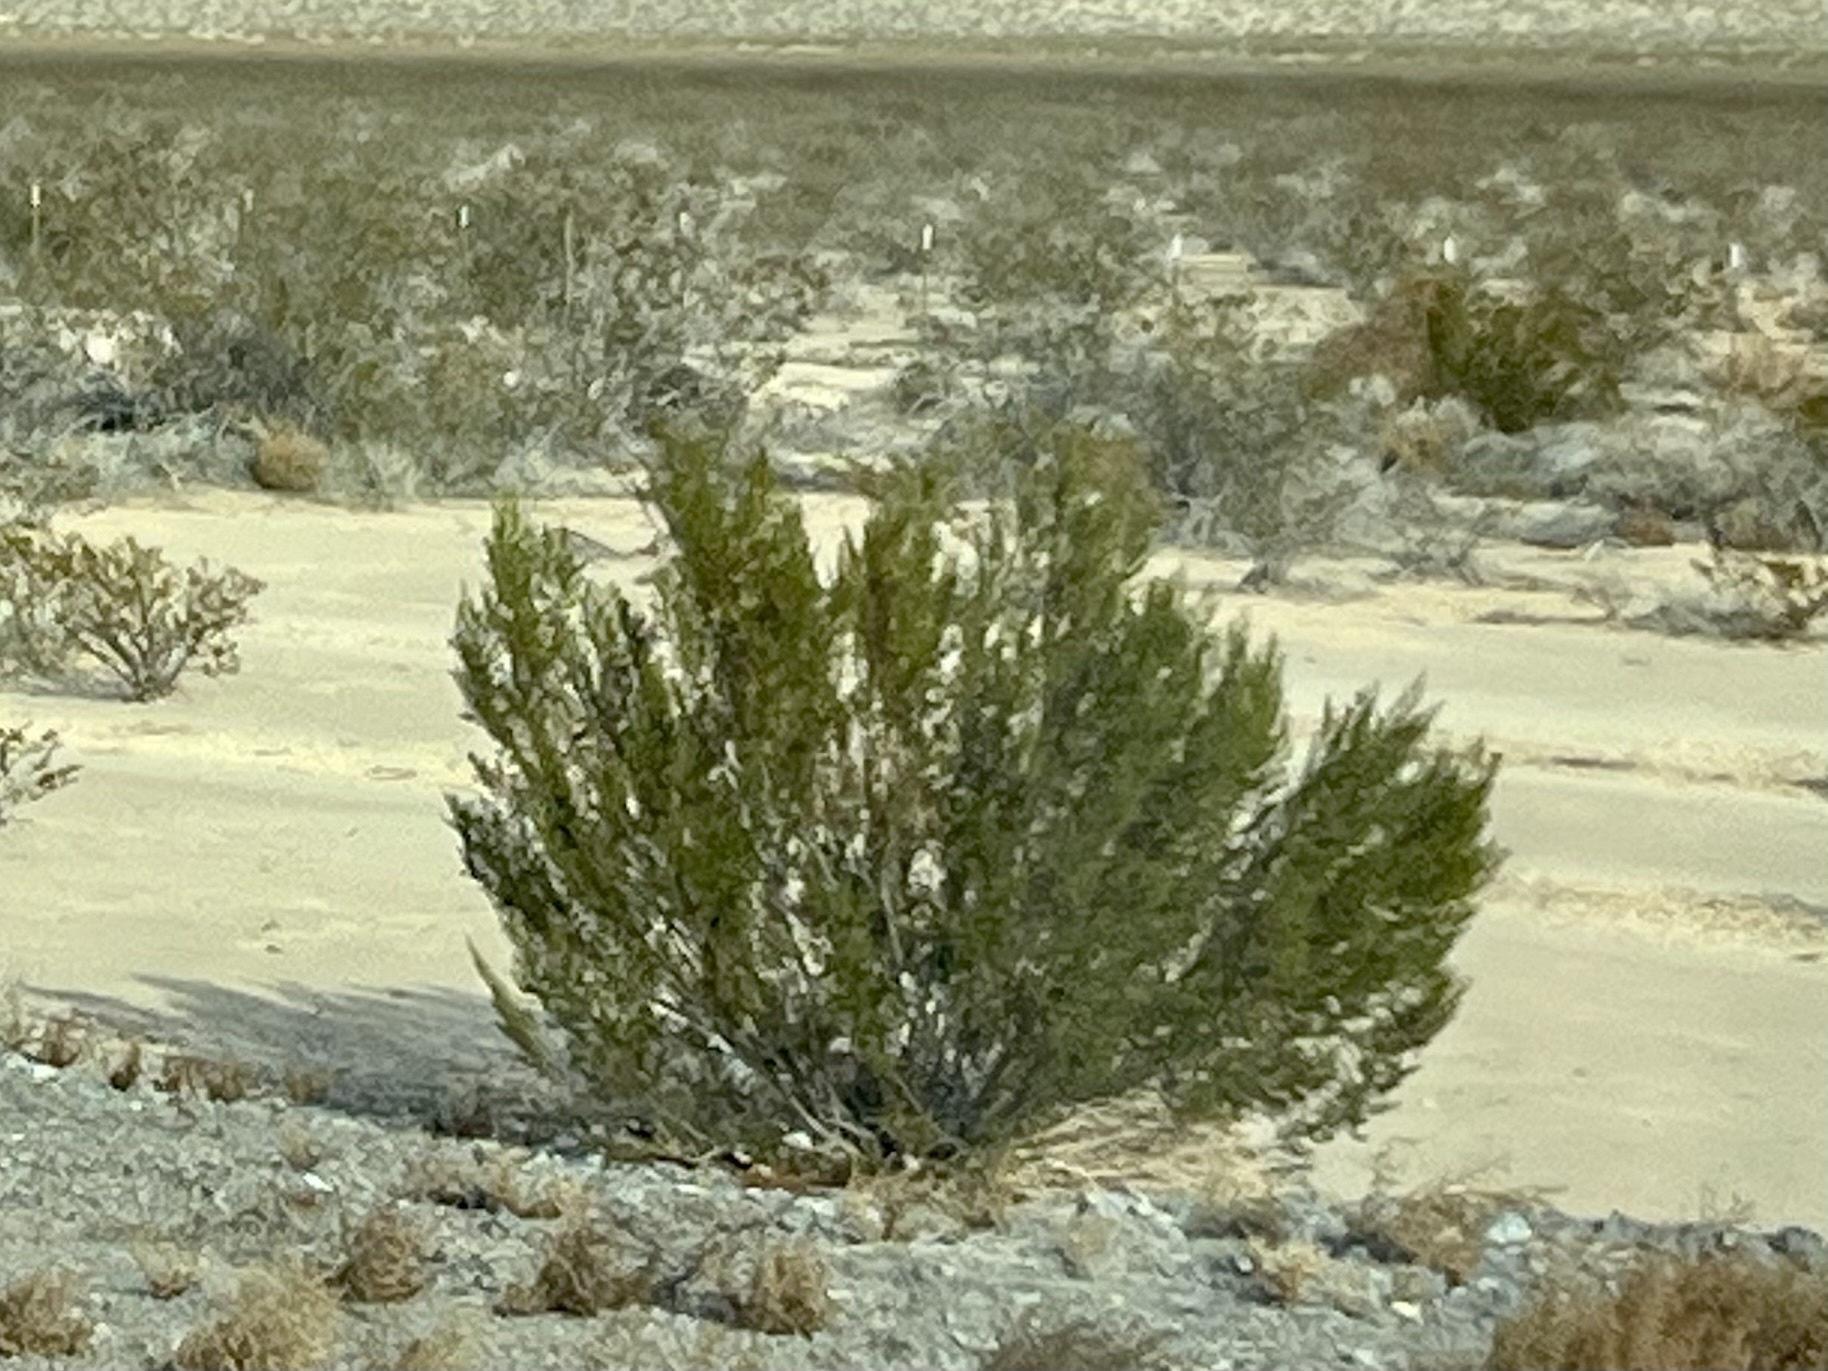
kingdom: Plantae
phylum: Tracheophyta
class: Magnoliopsida
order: Zygophyllales
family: Zygophyllaceae
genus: Larrea
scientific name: Larrea tridentata
